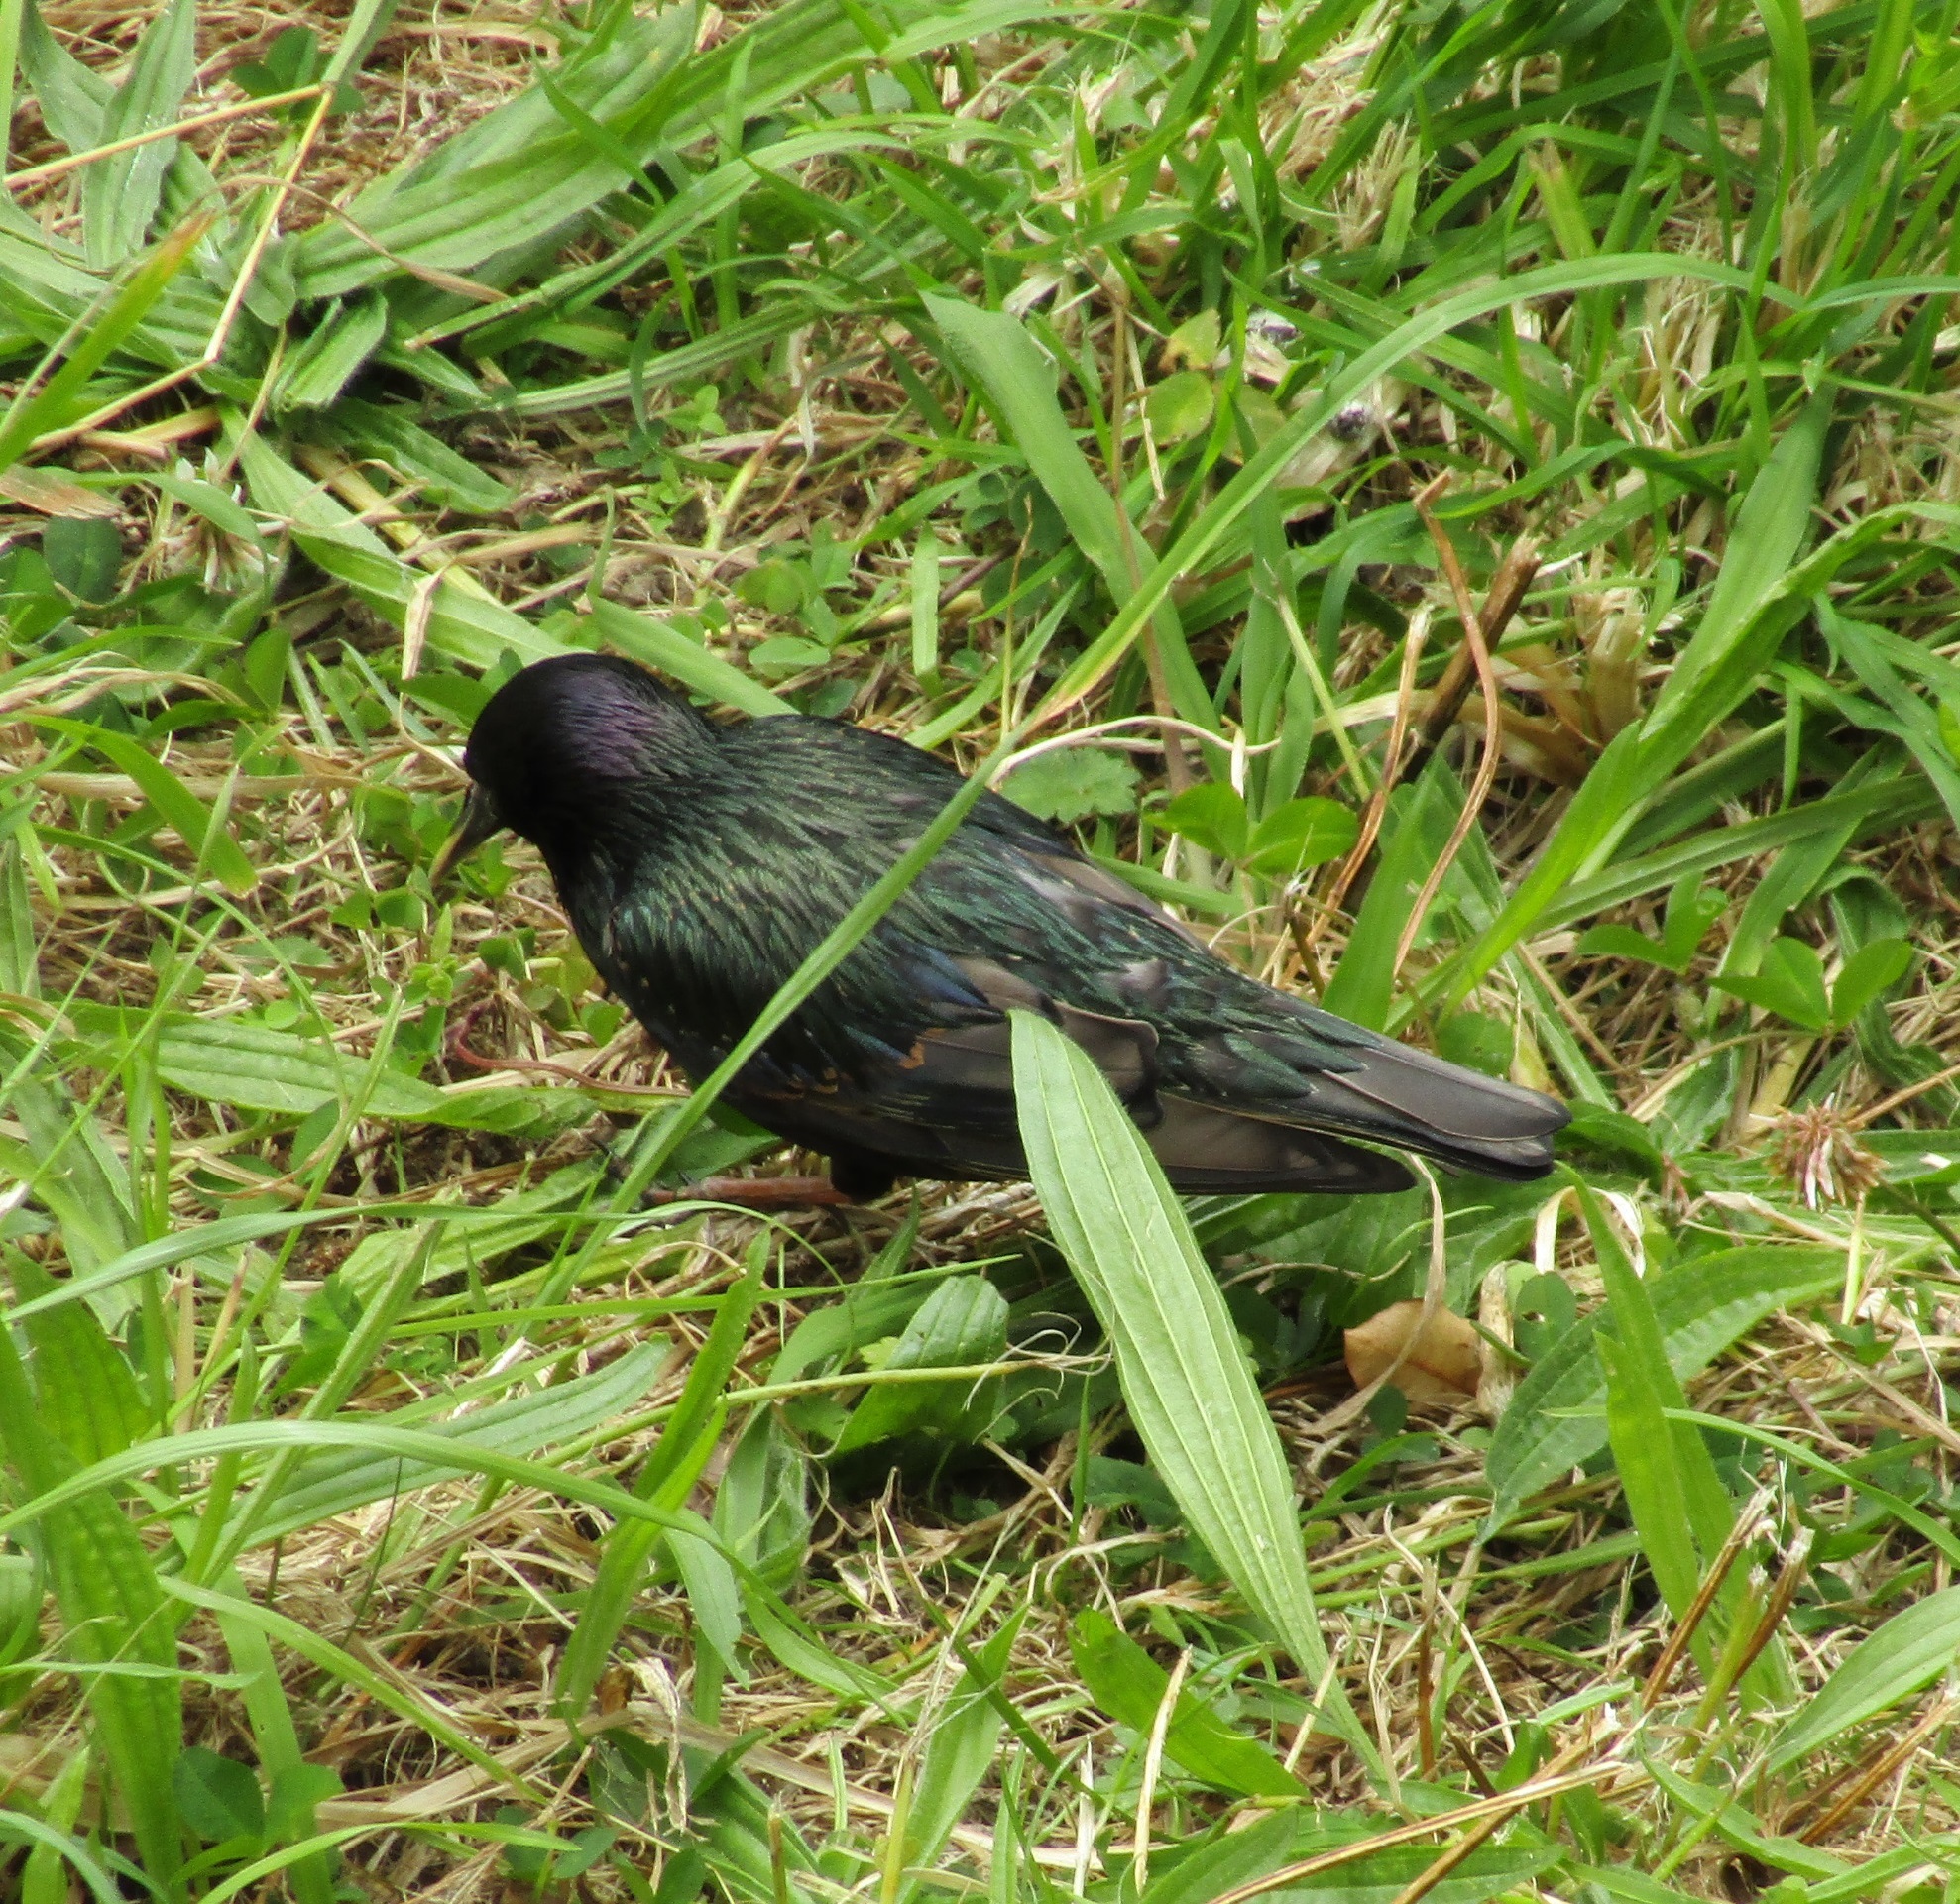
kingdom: Animalia
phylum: Chordata
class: Aves
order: Passeriformes
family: Sturnidae
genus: Sturnus
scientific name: Sturnus vulgaris
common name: Common starling
